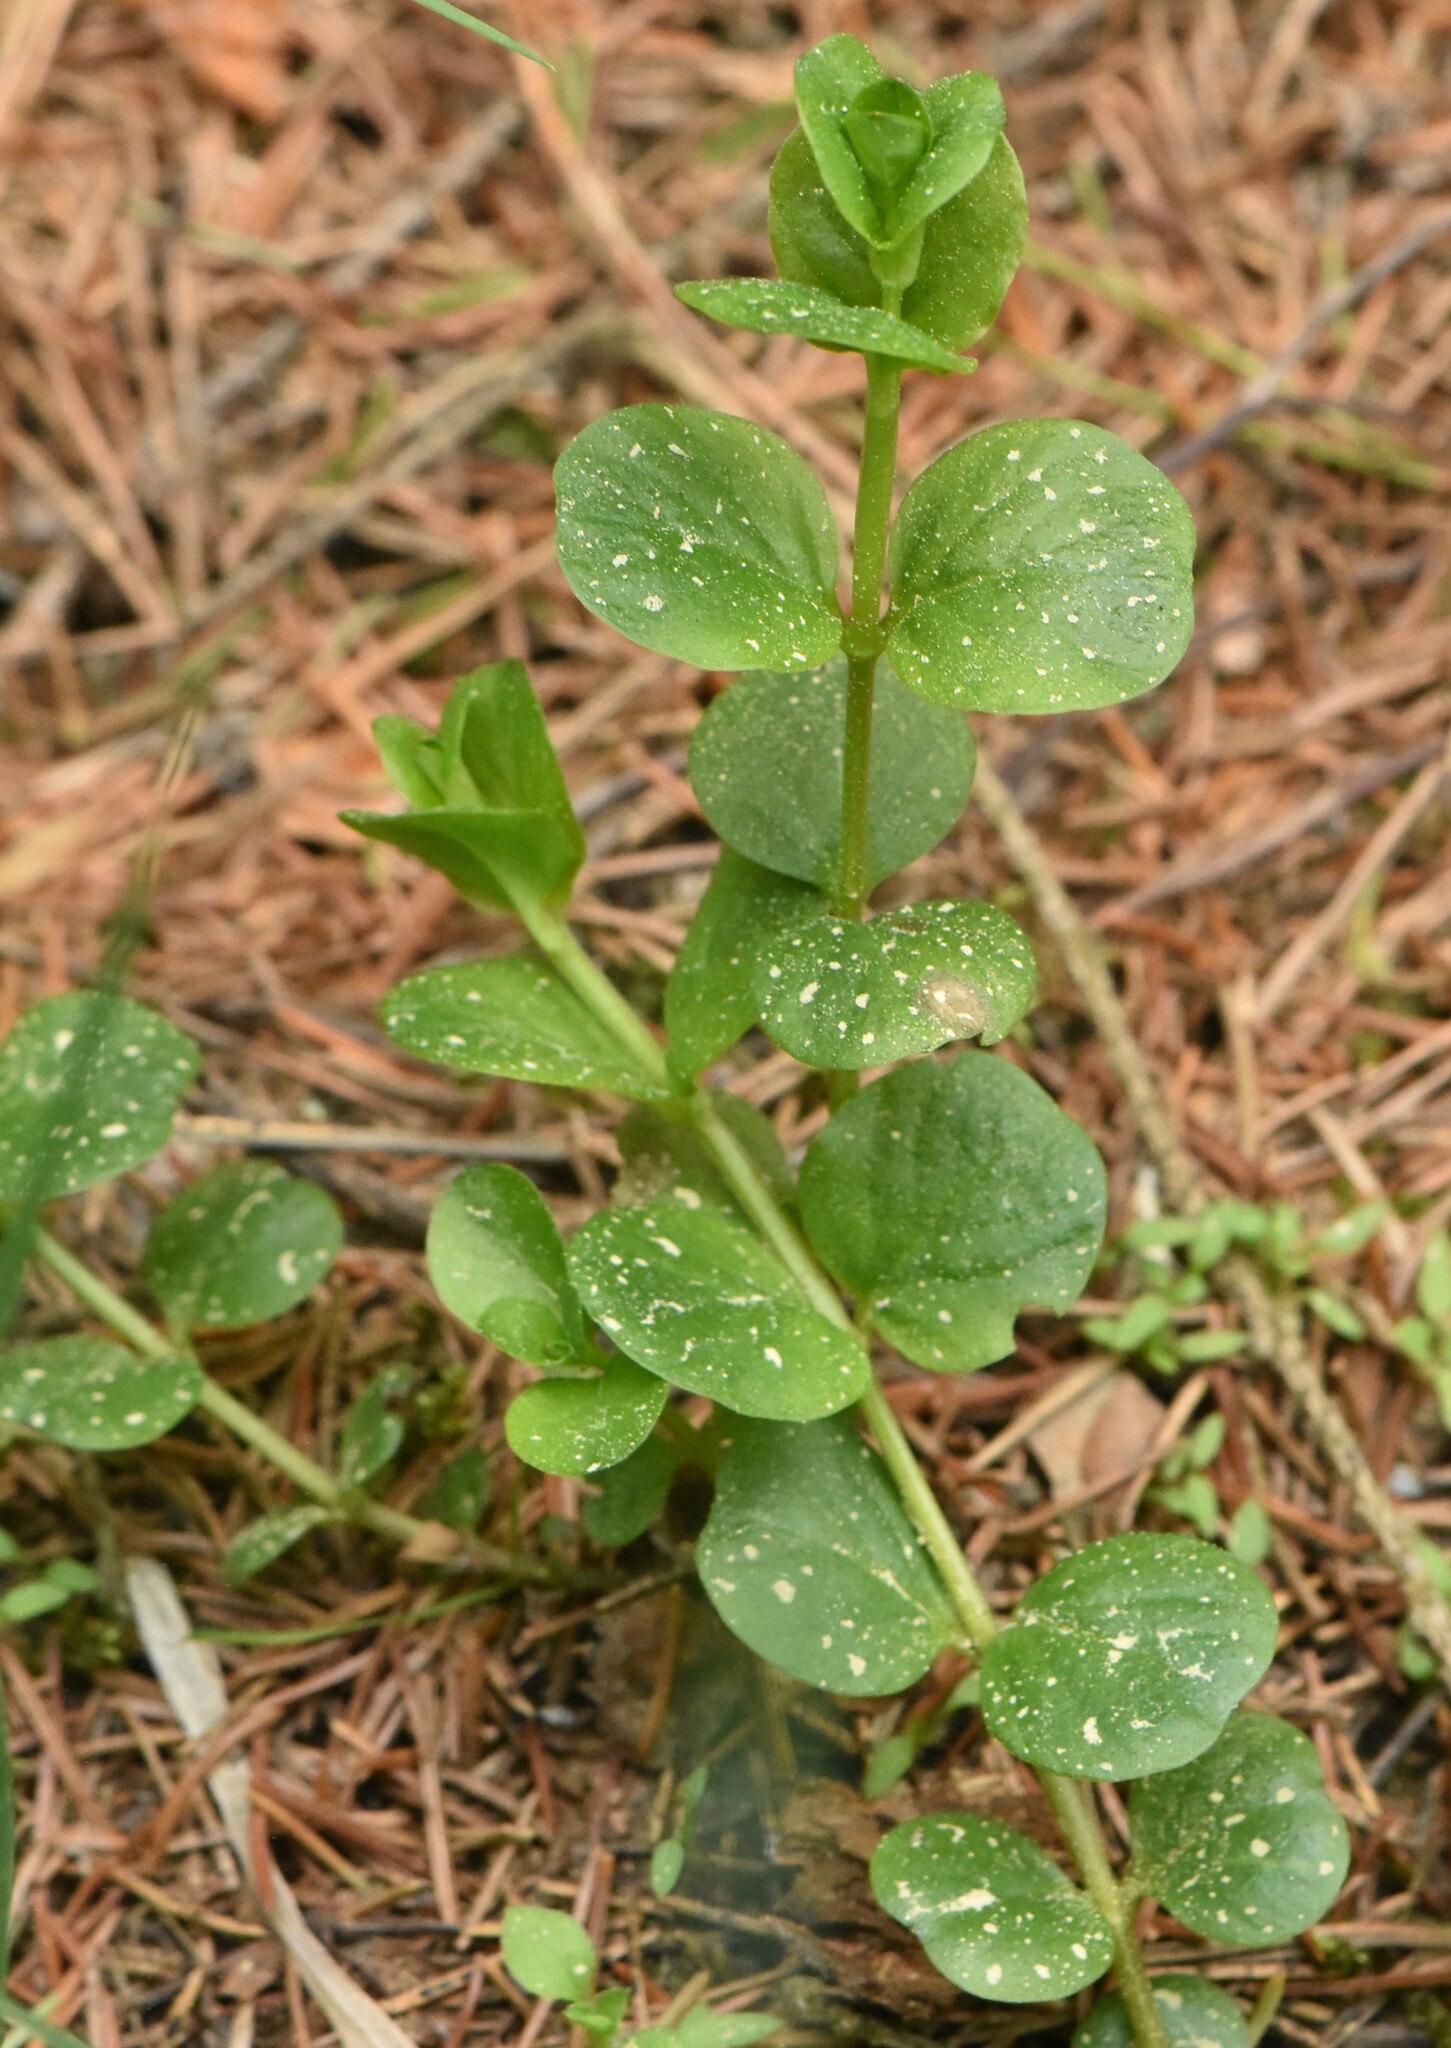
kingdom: Plantae
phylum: Tracheophyta
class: Magnoliopsida
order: Ericales
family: Primulaceae
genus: Lysimachia
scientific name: Lysimachia nummularia
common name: Moneywort
